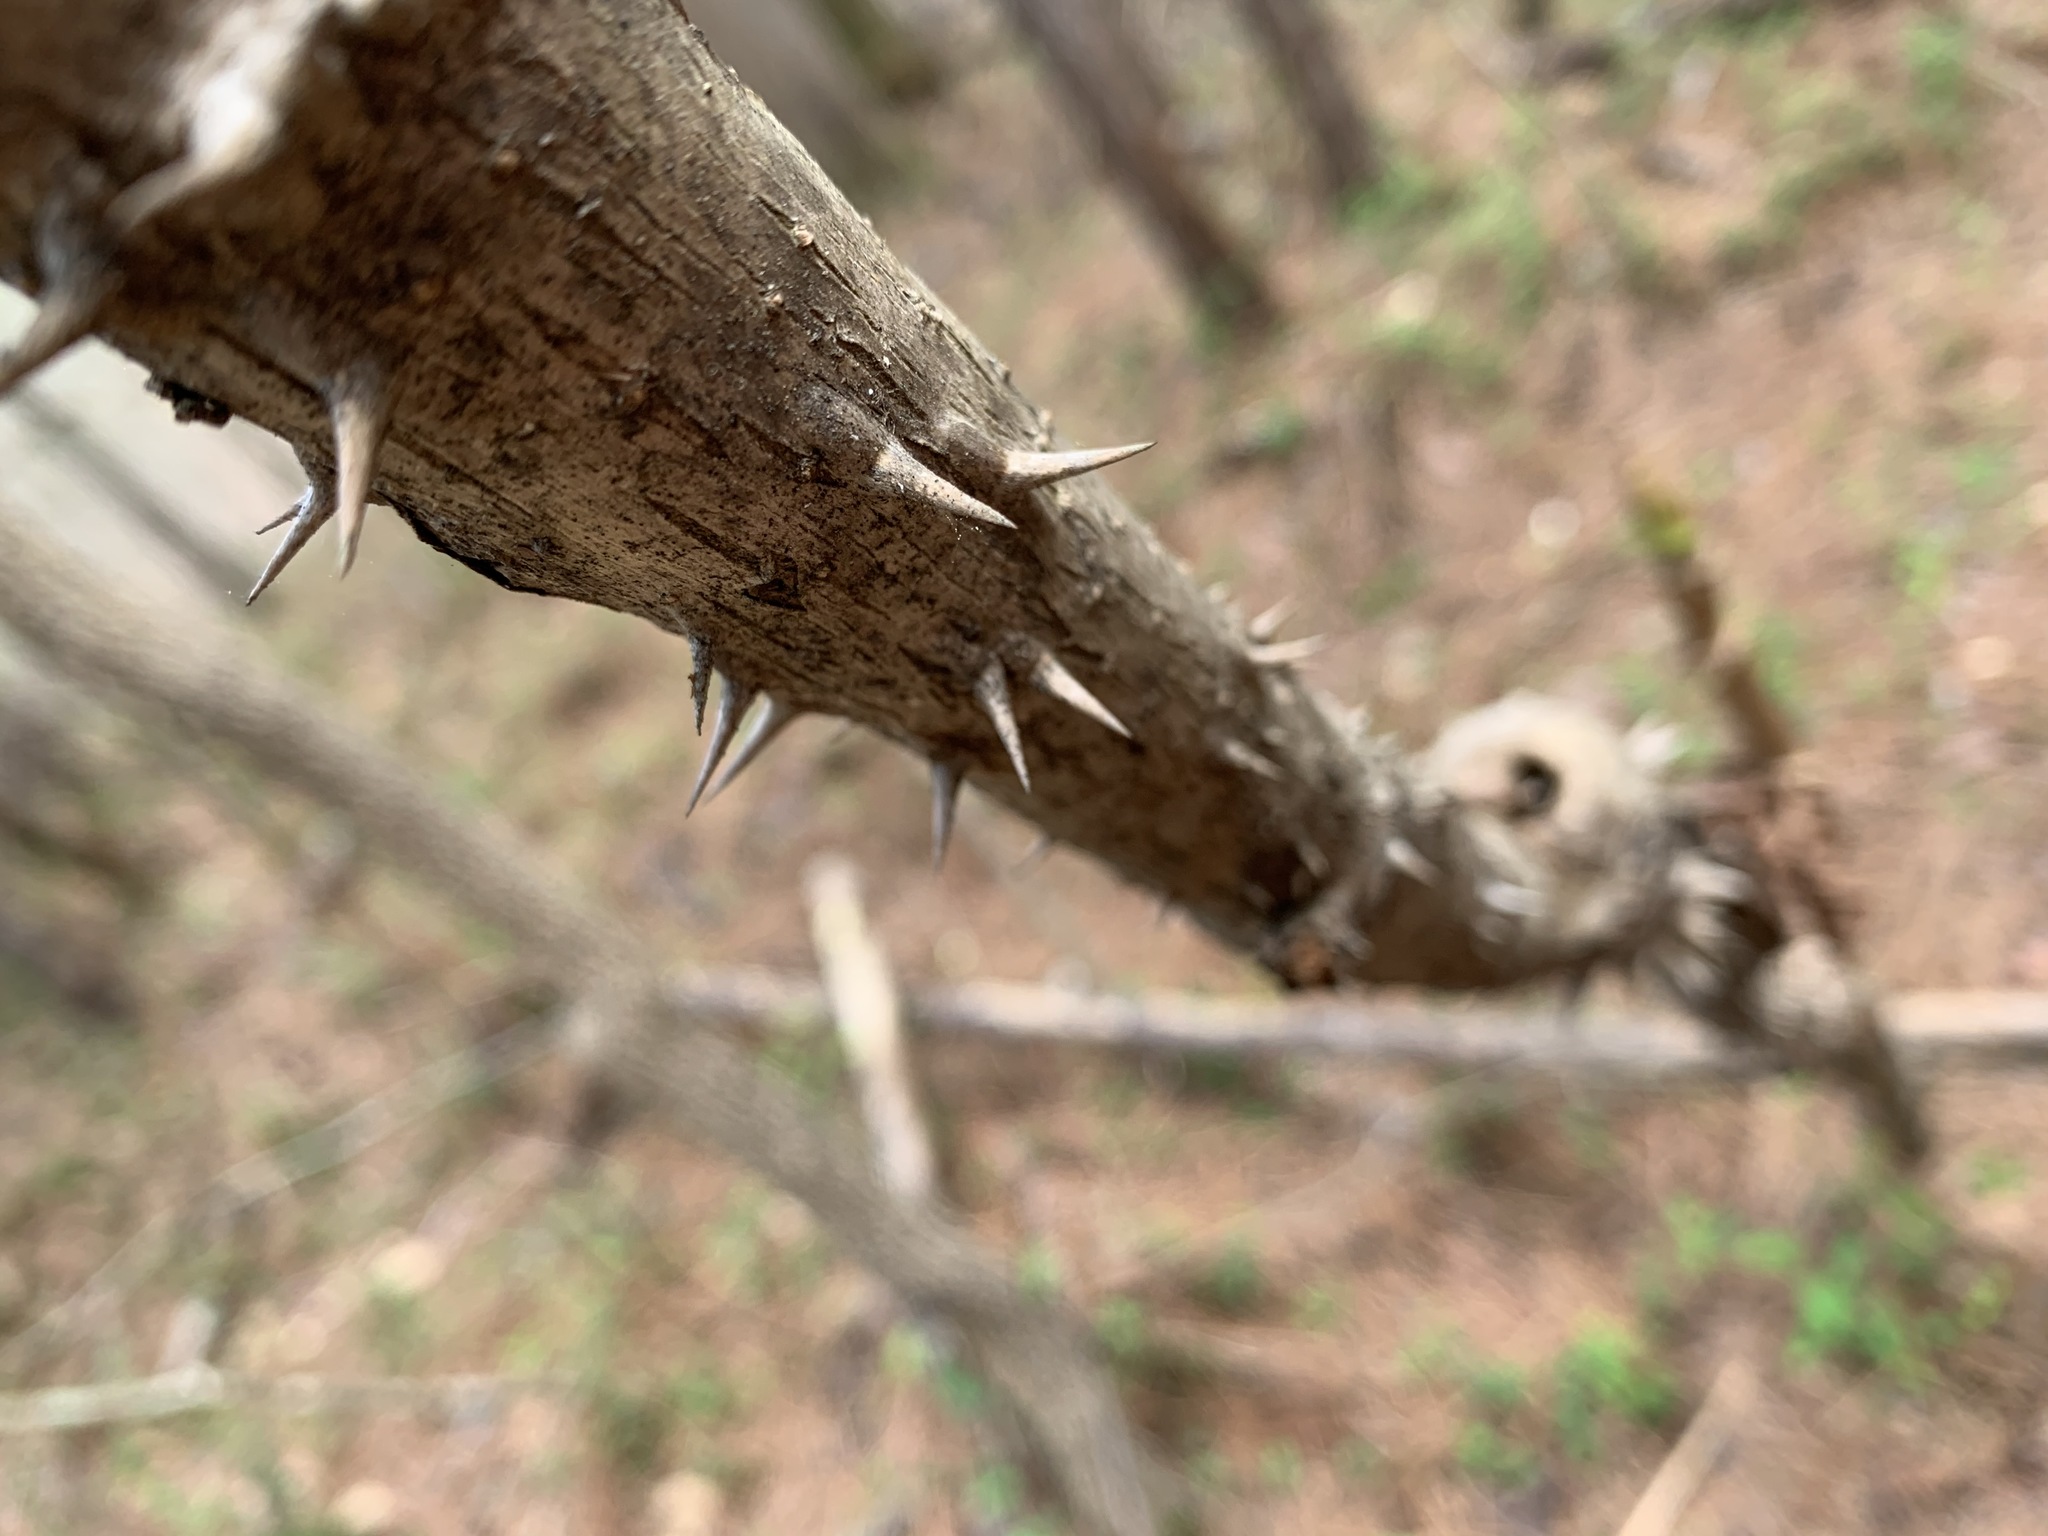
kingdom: Plantae
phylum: Tracheophyta
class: Magnoliopsida
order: Apiales
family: Araliaceae
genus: Aralia
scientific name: Aralia spinosa
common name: Hercules'-club
